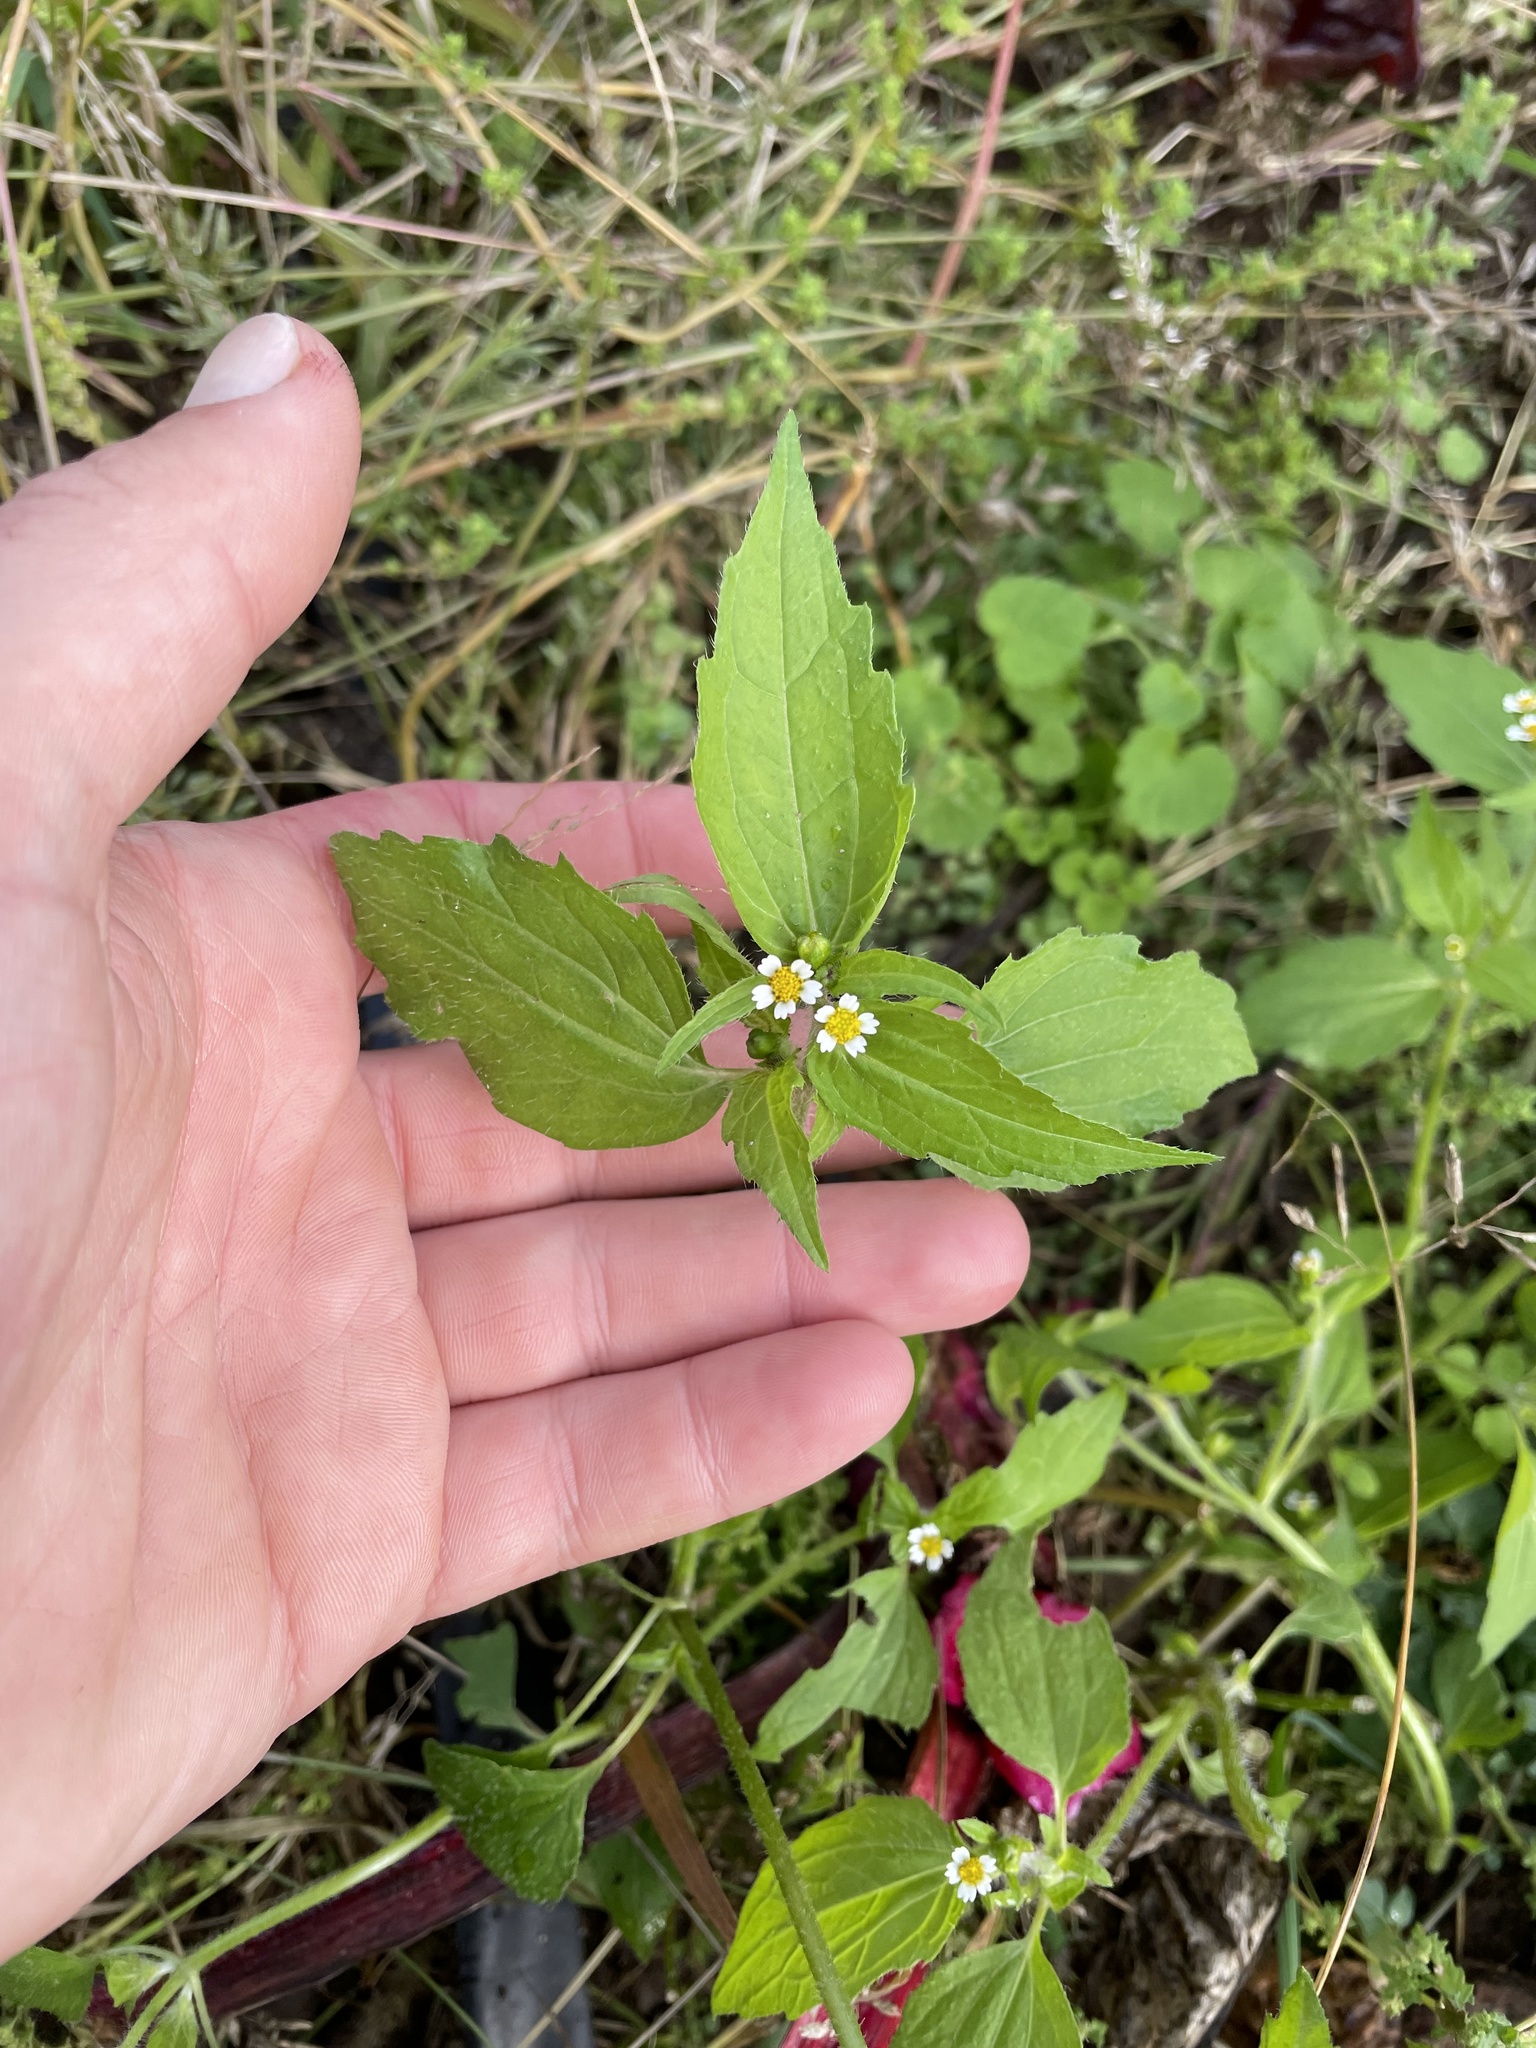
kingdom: Plantae
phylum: Tracheophyta
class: Magnoliopsida
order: Asterales
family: Asteraceae
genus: Galinsoga
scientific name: Galinsoga quadriradiata
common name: Shaggy soldier
